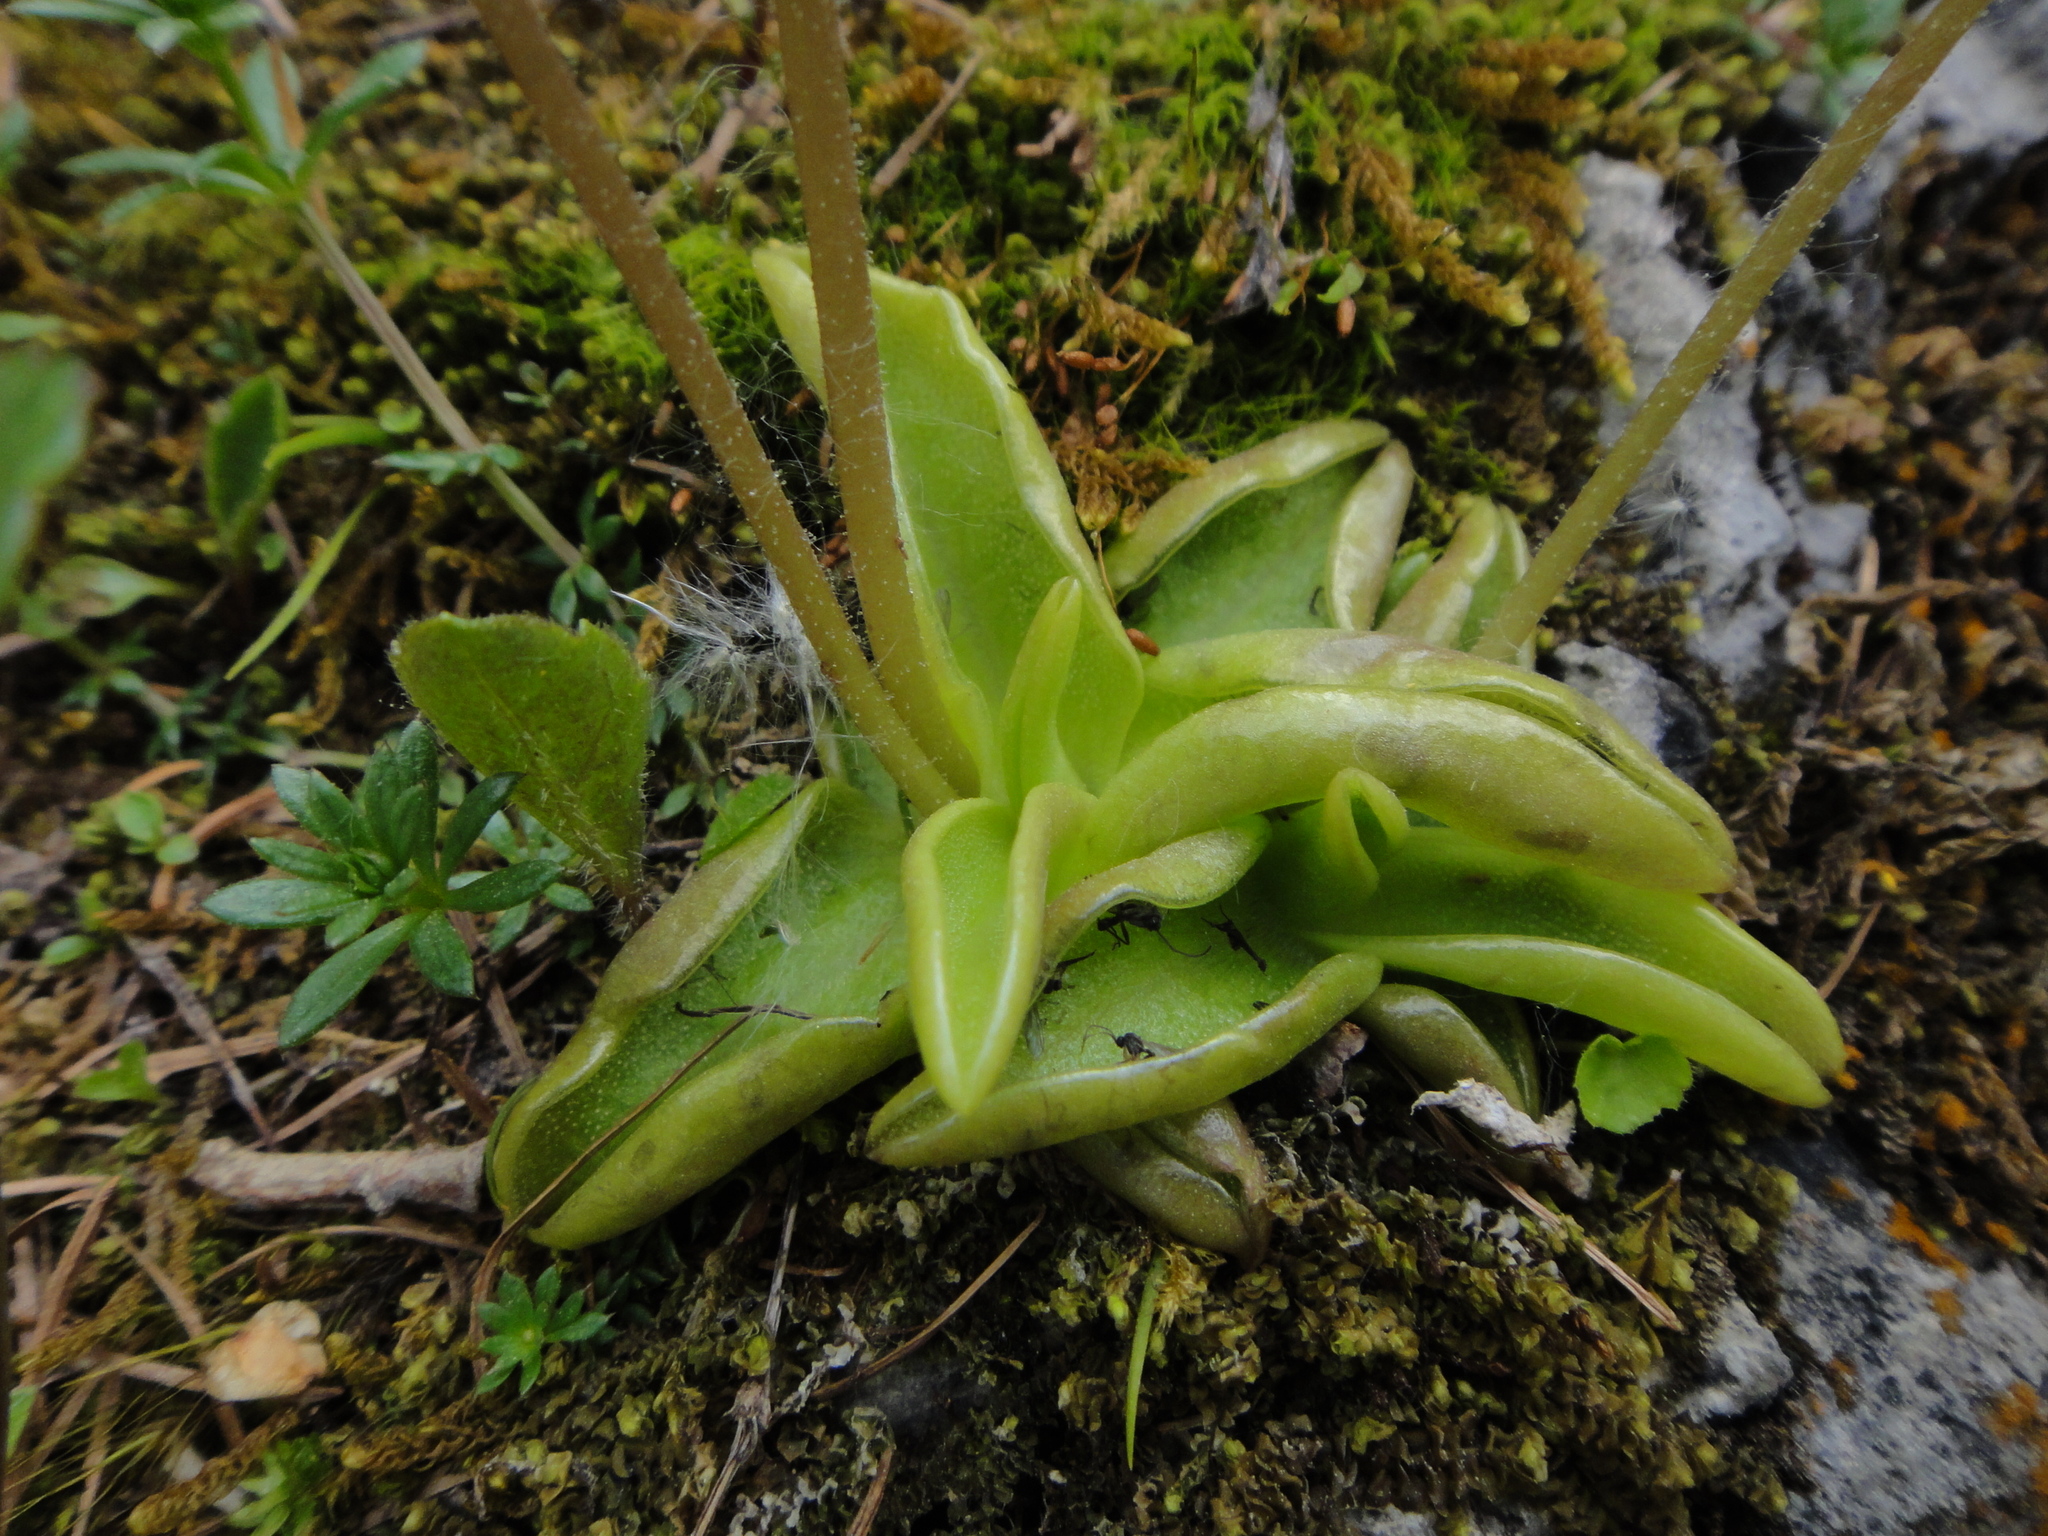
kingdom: Plantae
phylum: Tracheophyta
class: Magnoliopsida
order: Lamiales
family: Lentibulariaceae
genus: Pinguicula
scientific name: Pinguicula alpina
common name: Alpine butterwort
